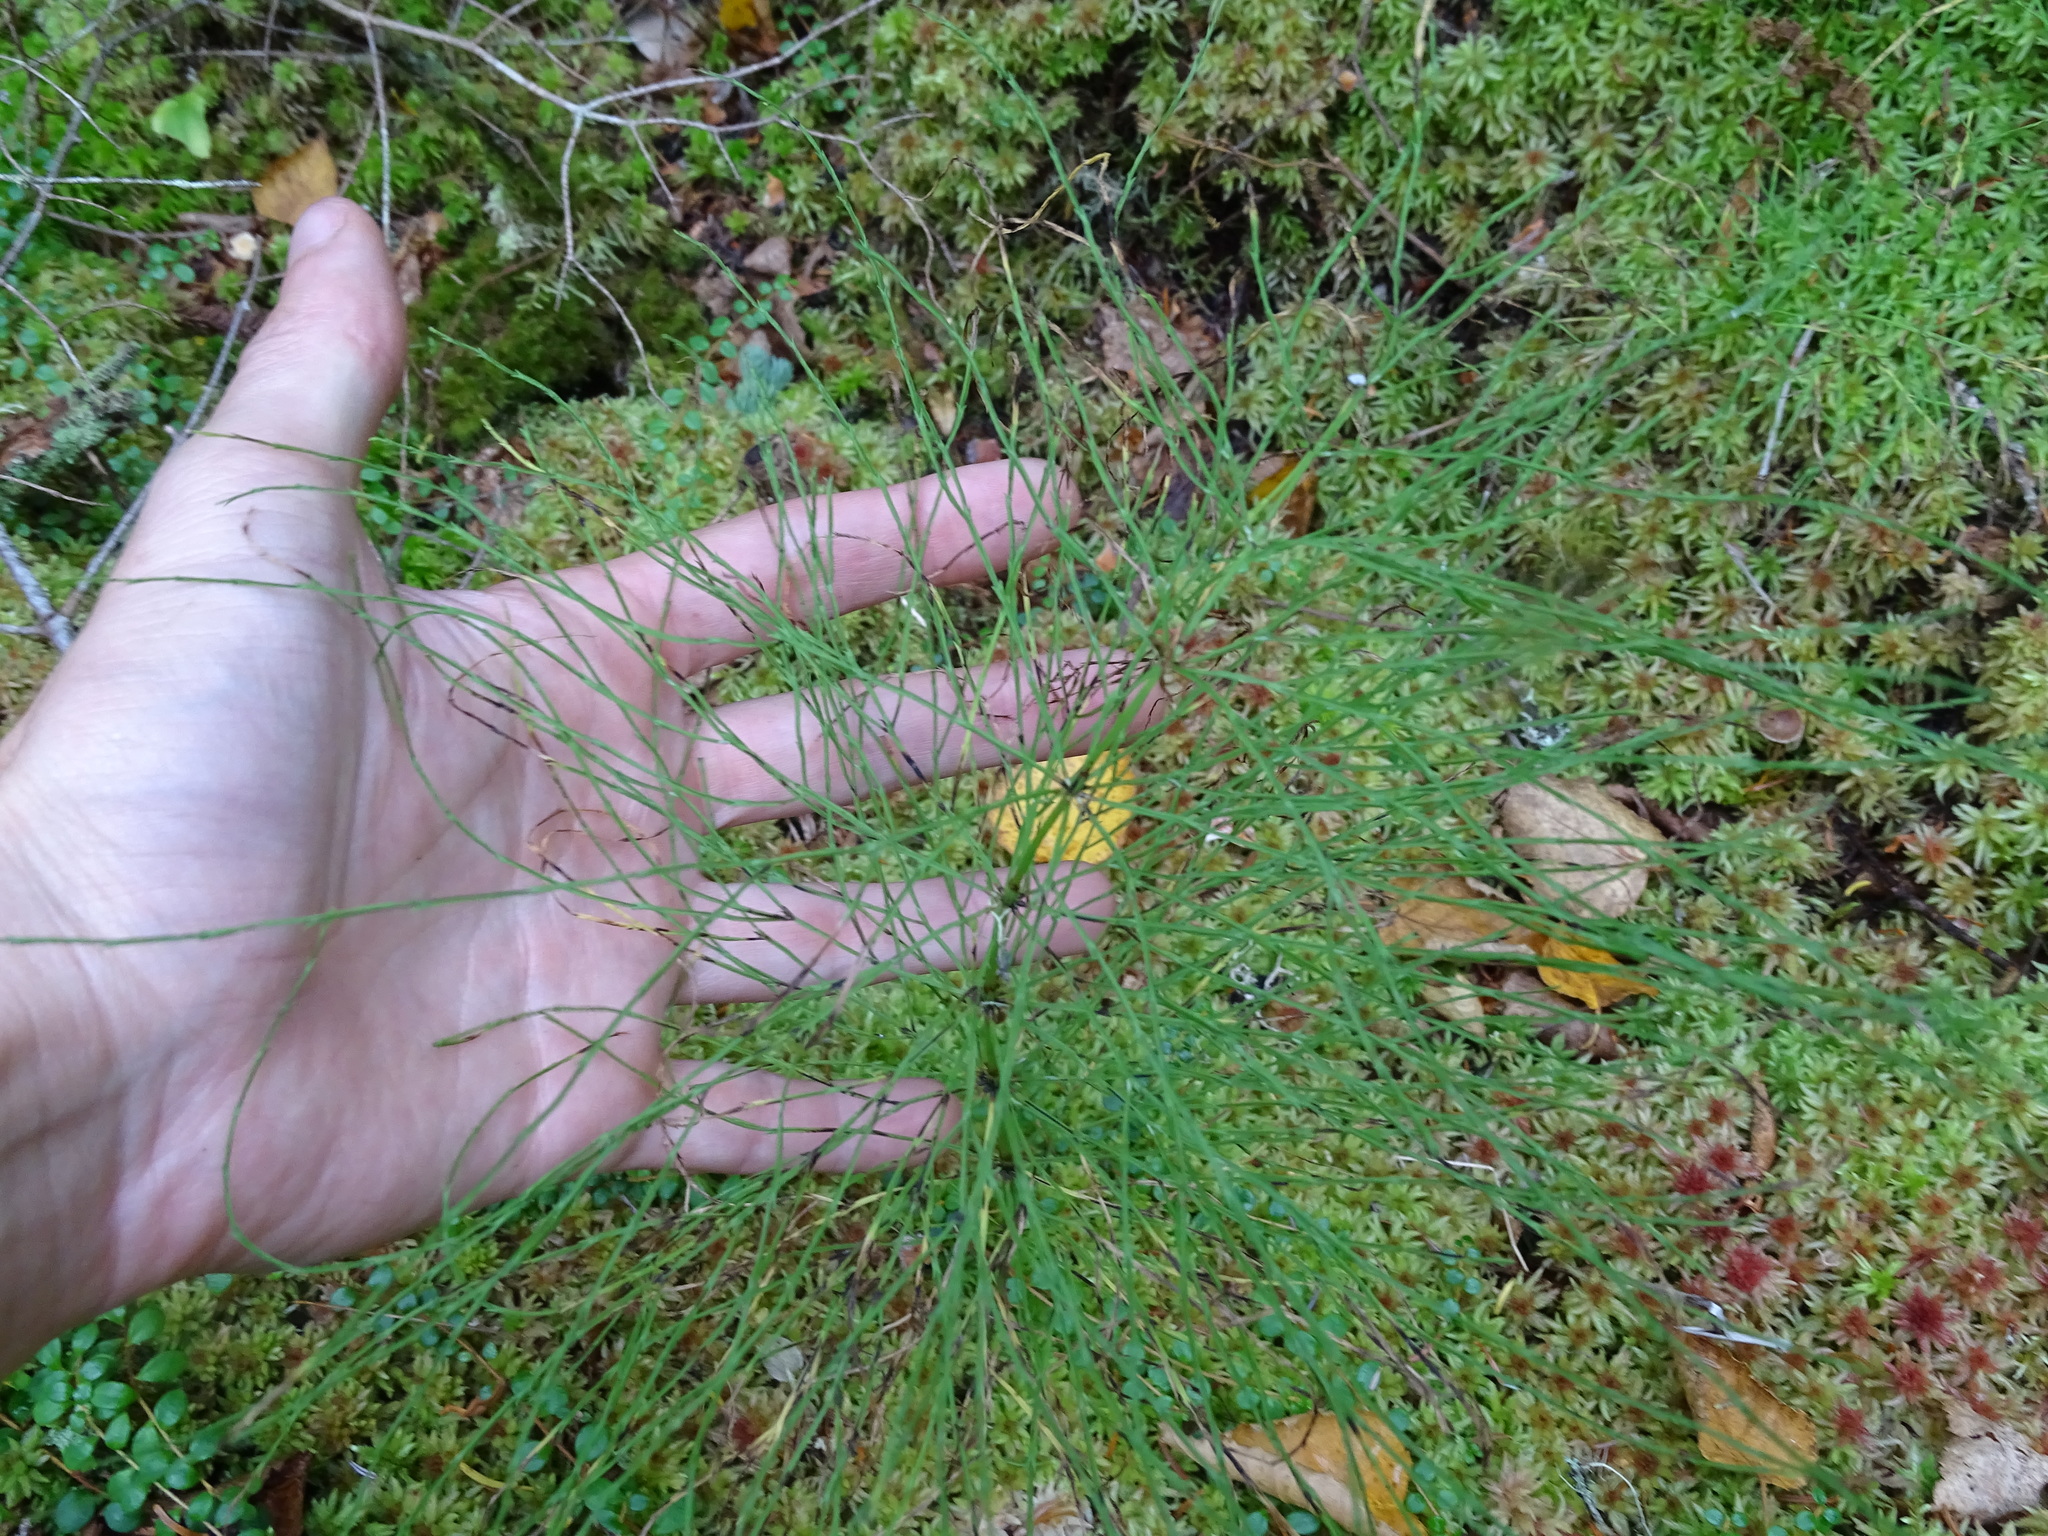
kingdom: Plantae
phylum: Tracheophyta
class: Polypodiopsida
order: Equisetales
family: Equisetaceae
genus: Equisetum
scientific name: Equisetum sylvaticum
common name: Wood horsetail
